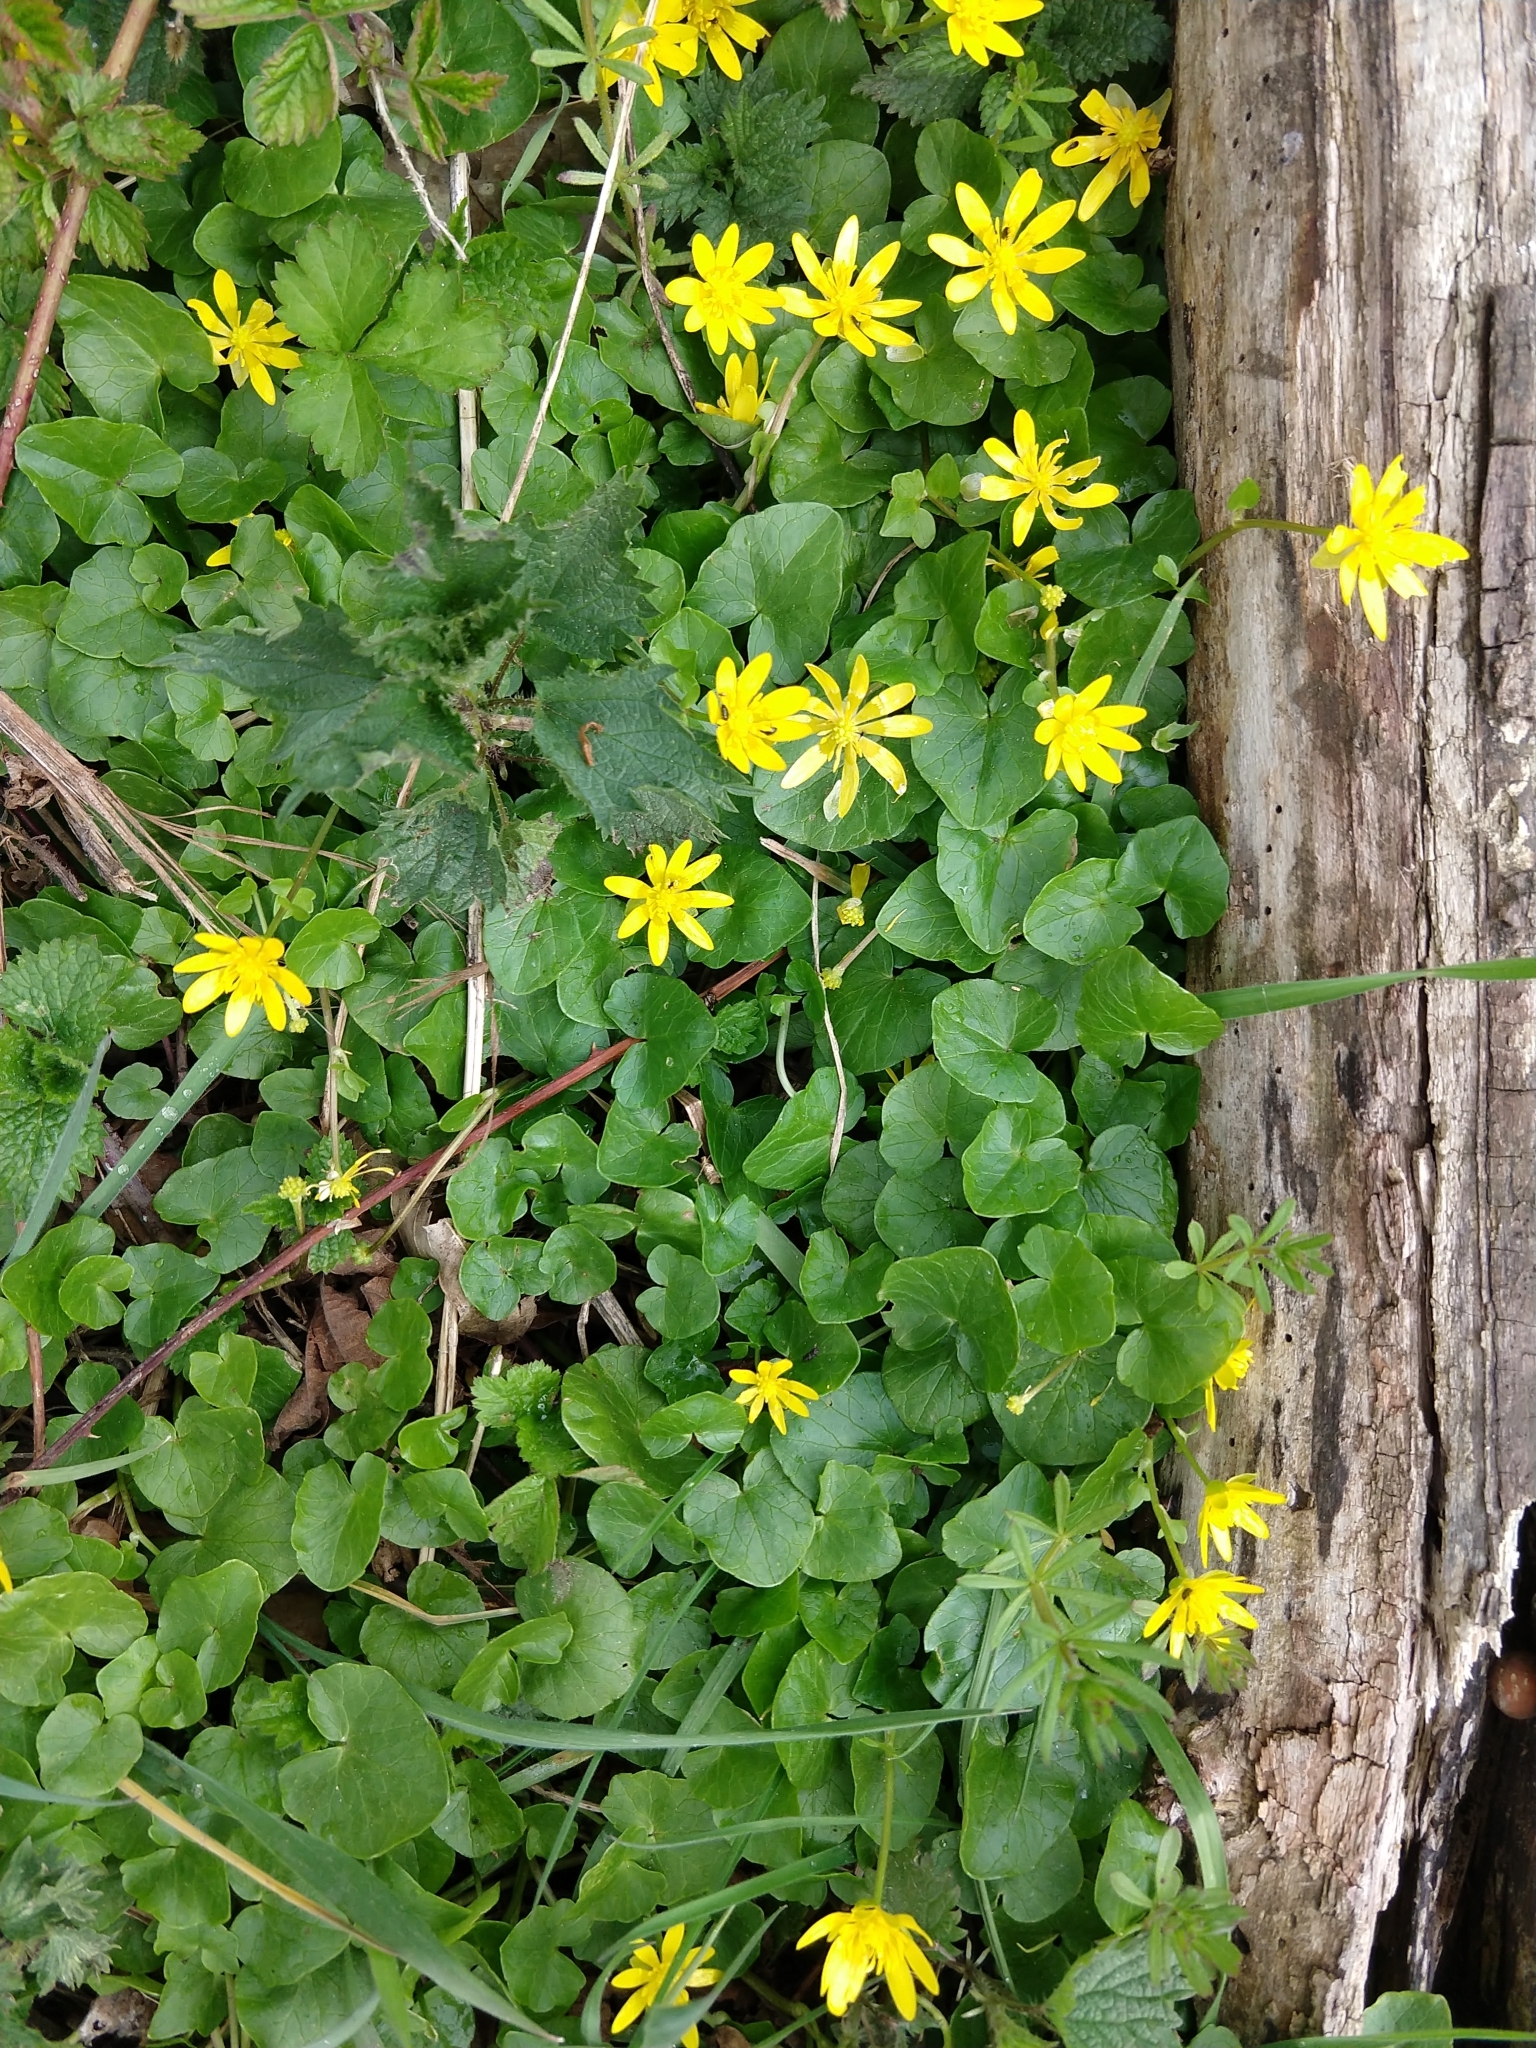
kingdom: Plantae
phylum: Tracheophyta
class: Magnoliopsida
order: Ranunculales
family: Ranunculaceae
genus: Ficaria
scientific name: Ficaria verna
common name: Lesser celandine
